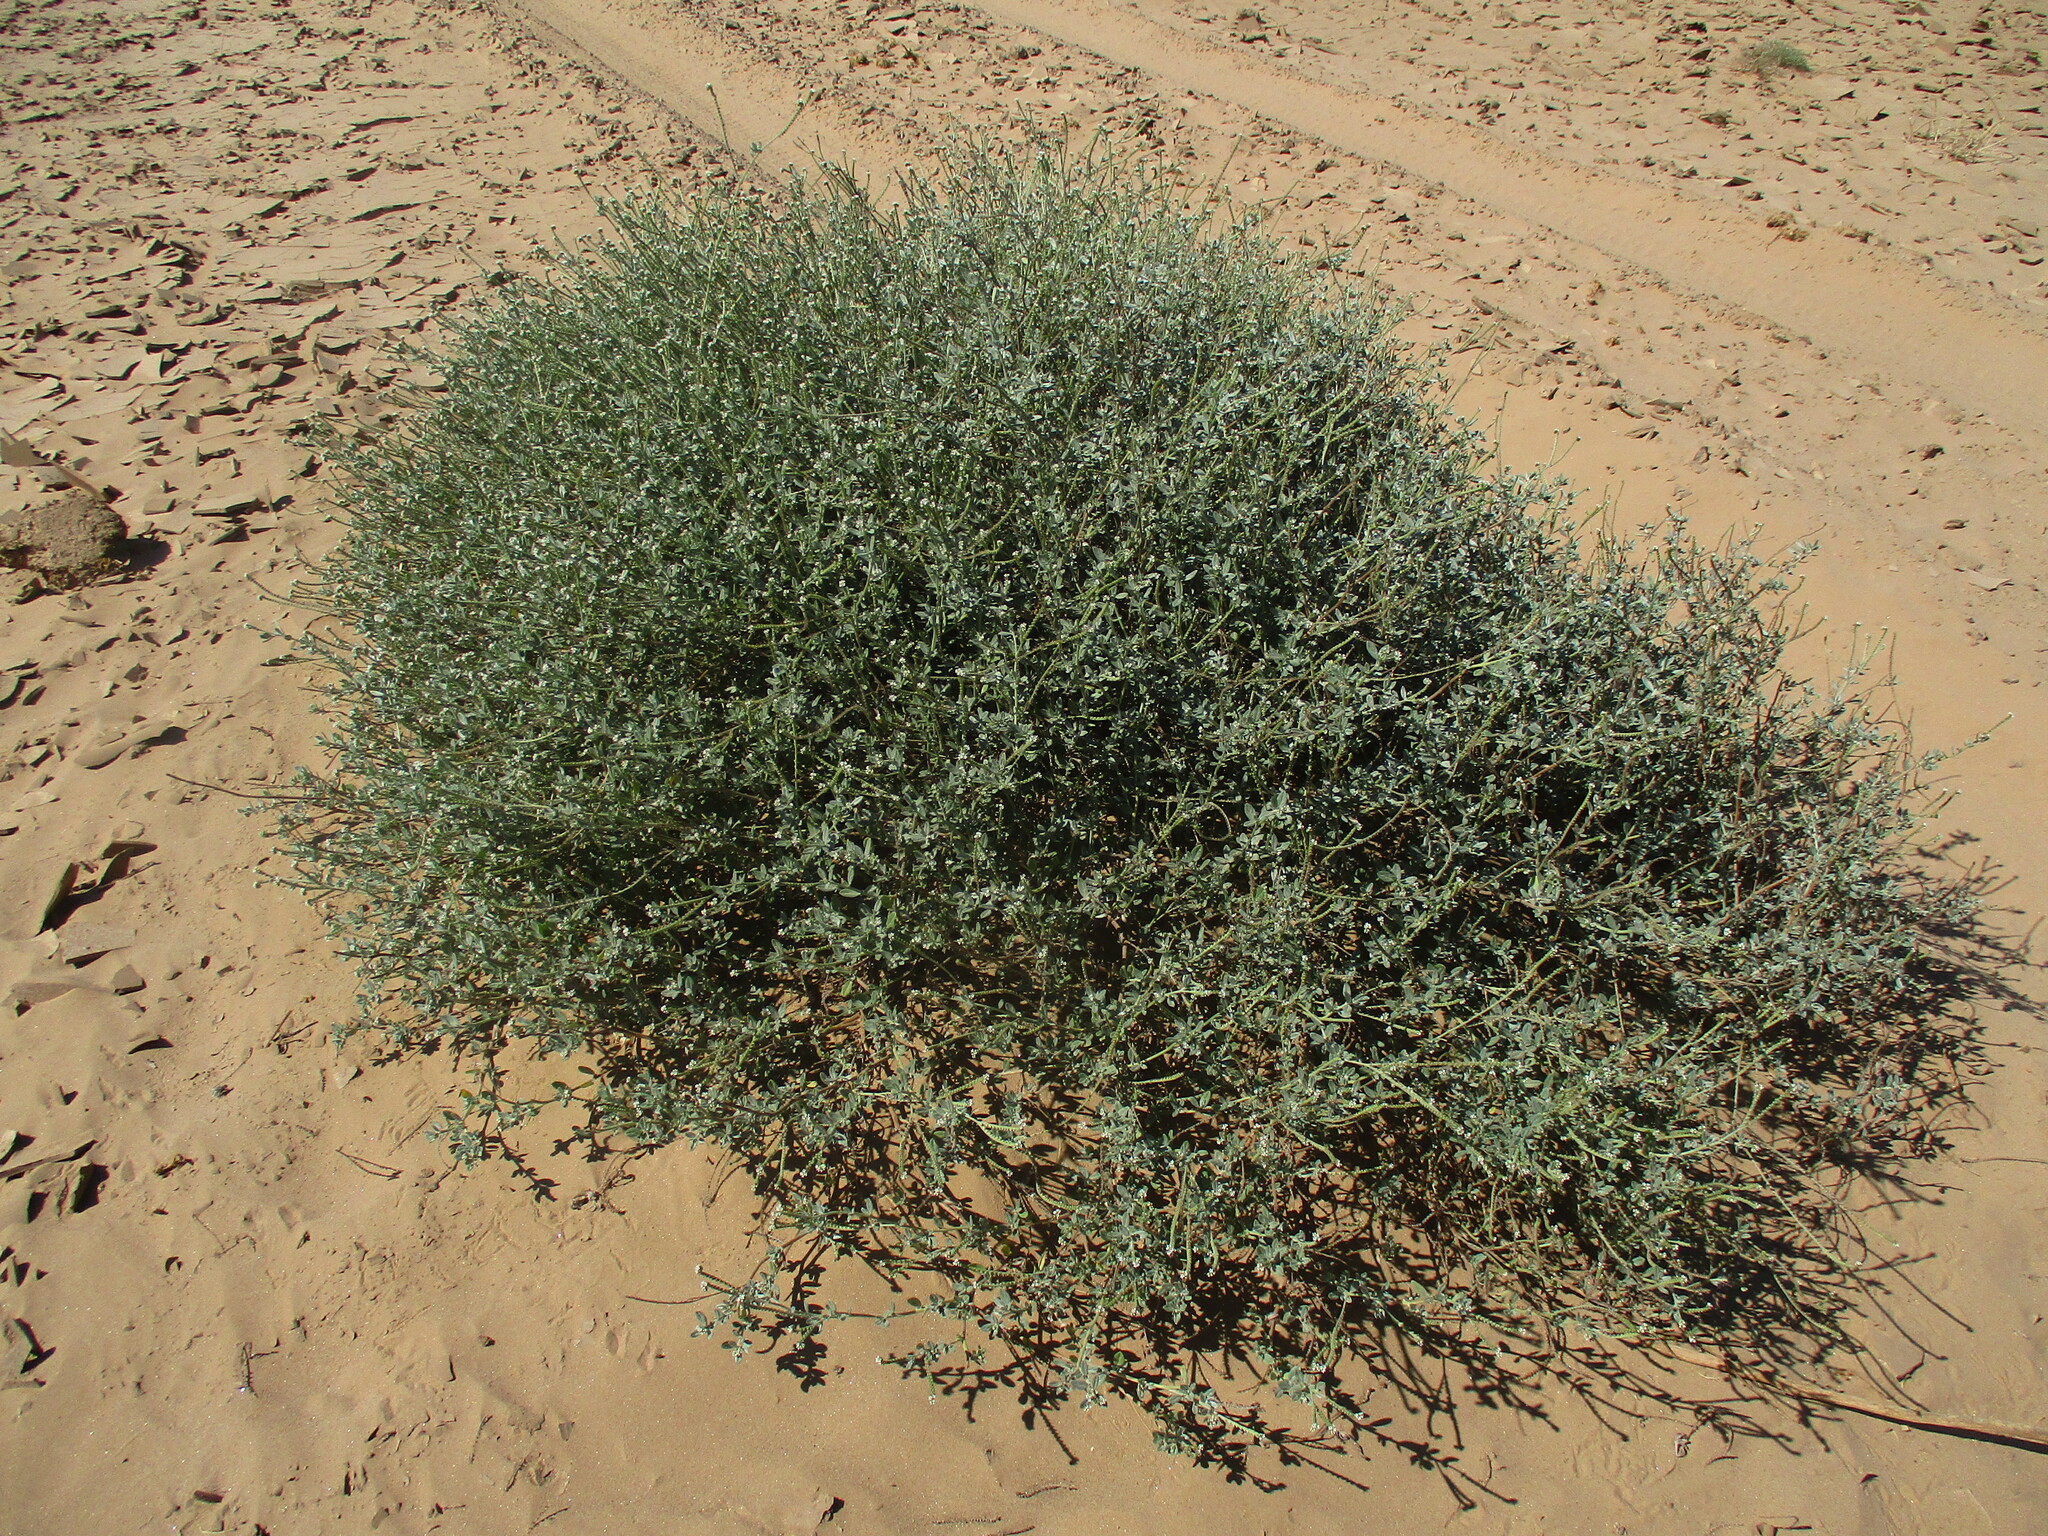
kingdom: Plantae
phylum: Tracheophyta
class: Magnoliopsida
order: Boraginales
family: Heliotropiaceae
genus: Euploca
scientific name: Euploca ovalifolia
